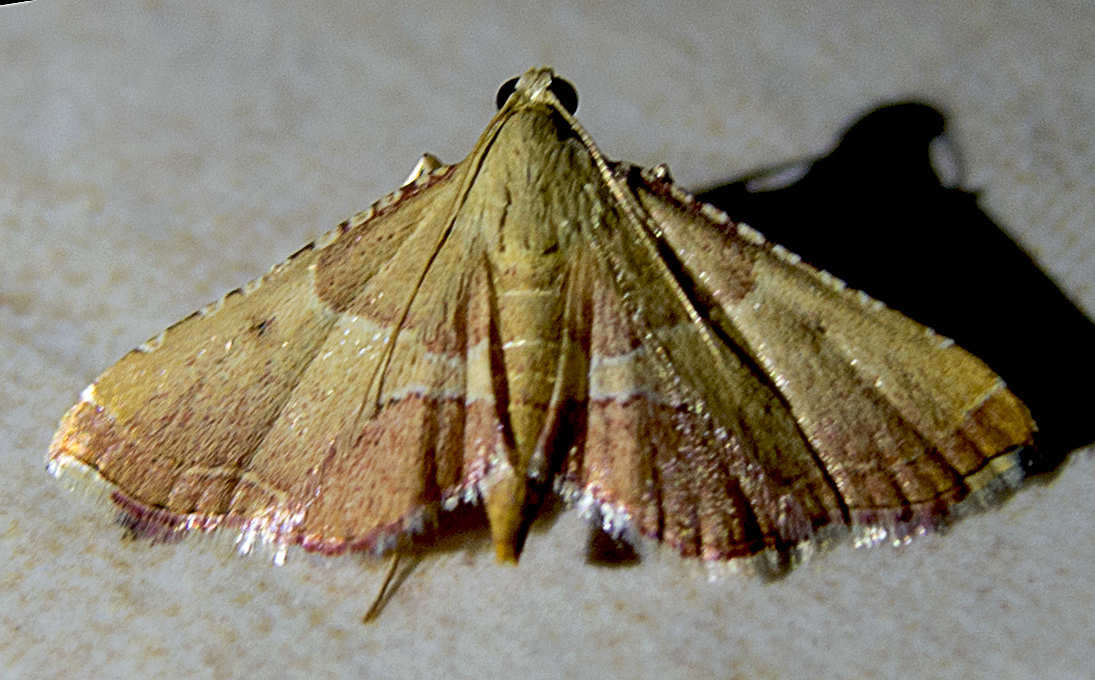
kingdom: Animalia
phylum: Arthropoda
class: Insecta
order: Lepidoptera
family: Pyralidae
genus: Endotricha
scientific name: Endotricha flammealis
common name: Rosy tabby
